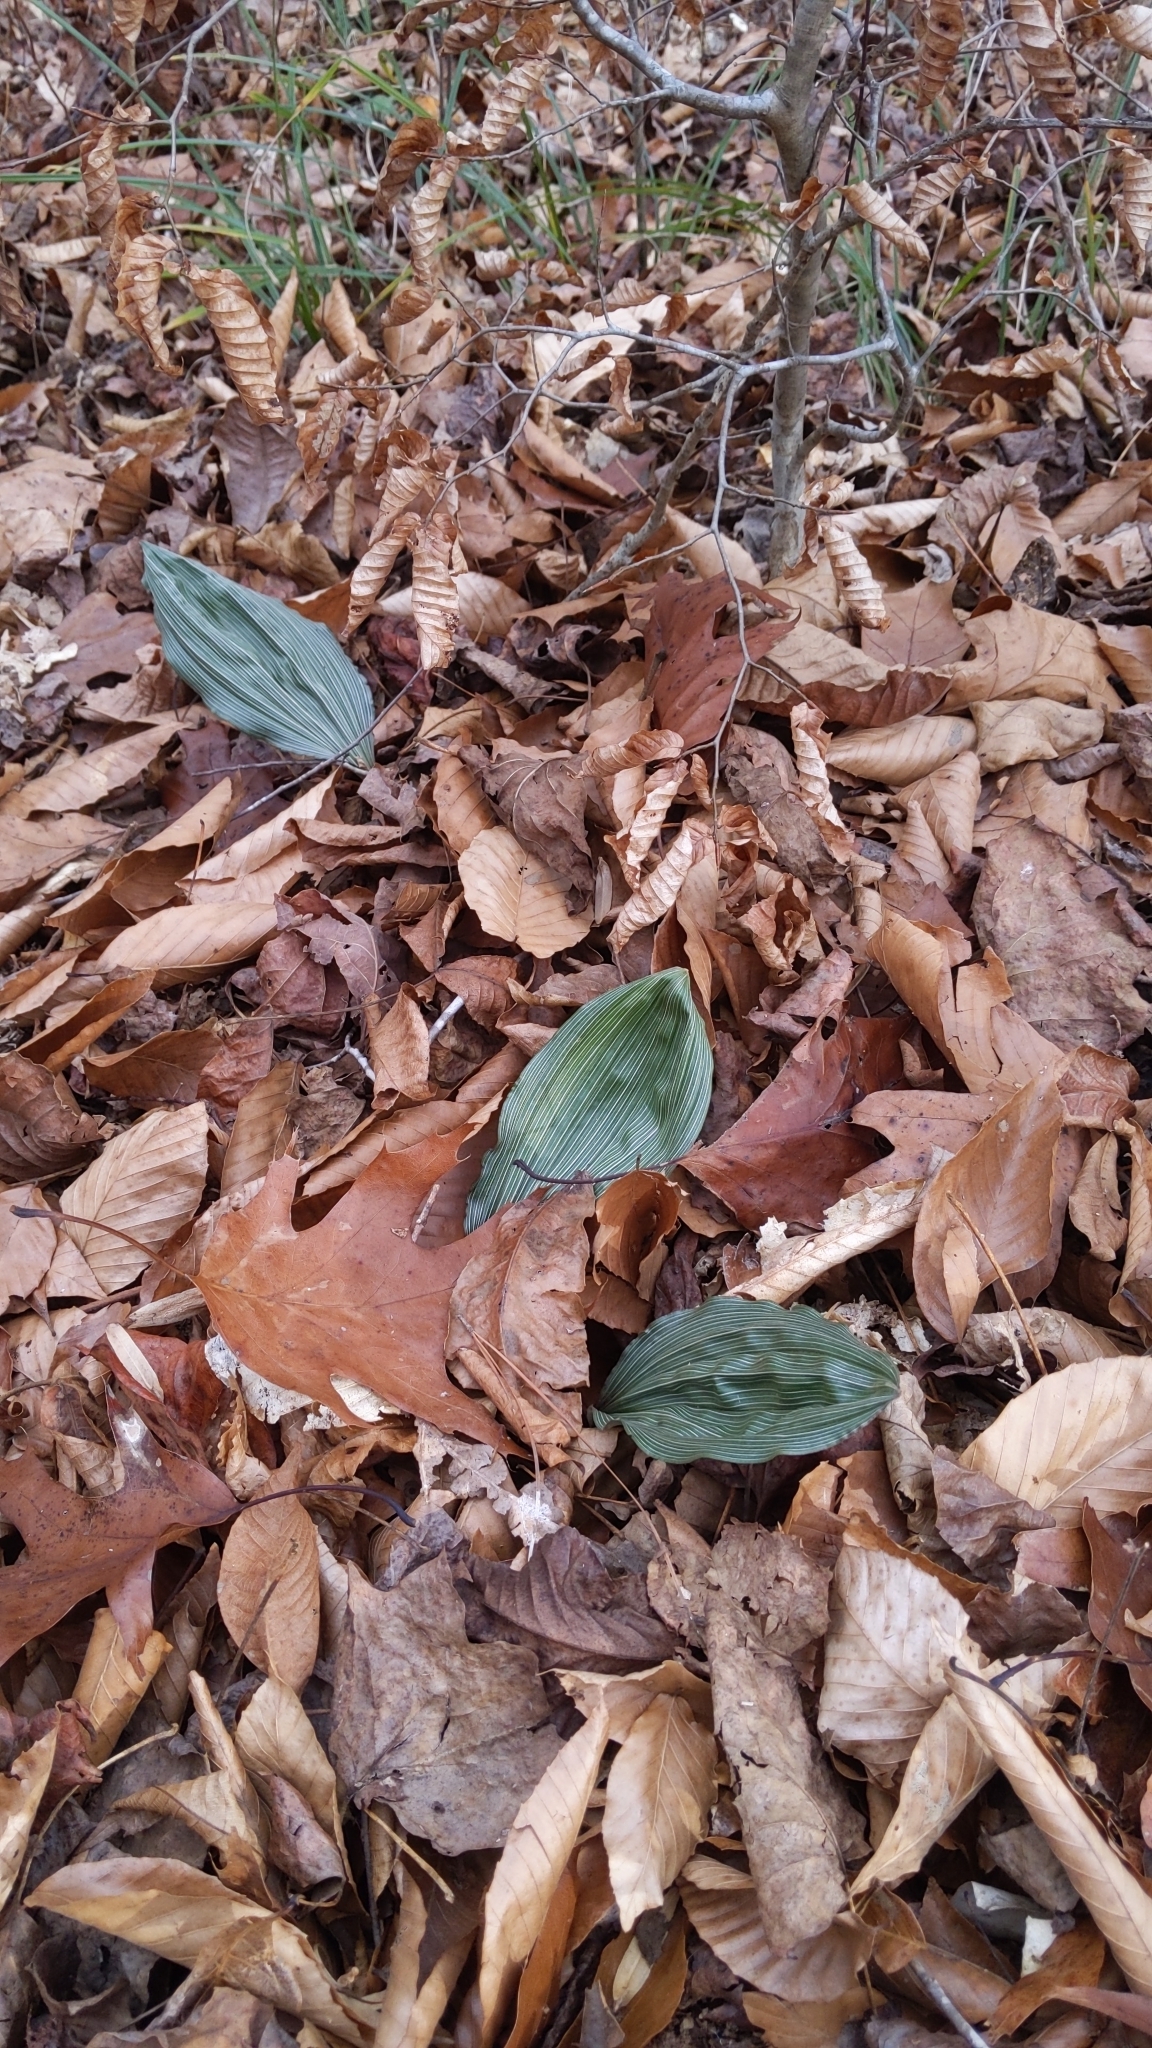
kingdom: Plantae
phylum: Tracheophyta
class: Liliopsida
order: Asparagales
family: Orchidaceae
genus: Aplectrum
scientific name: Aplectrum hyemale
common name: Adam-and-eve
